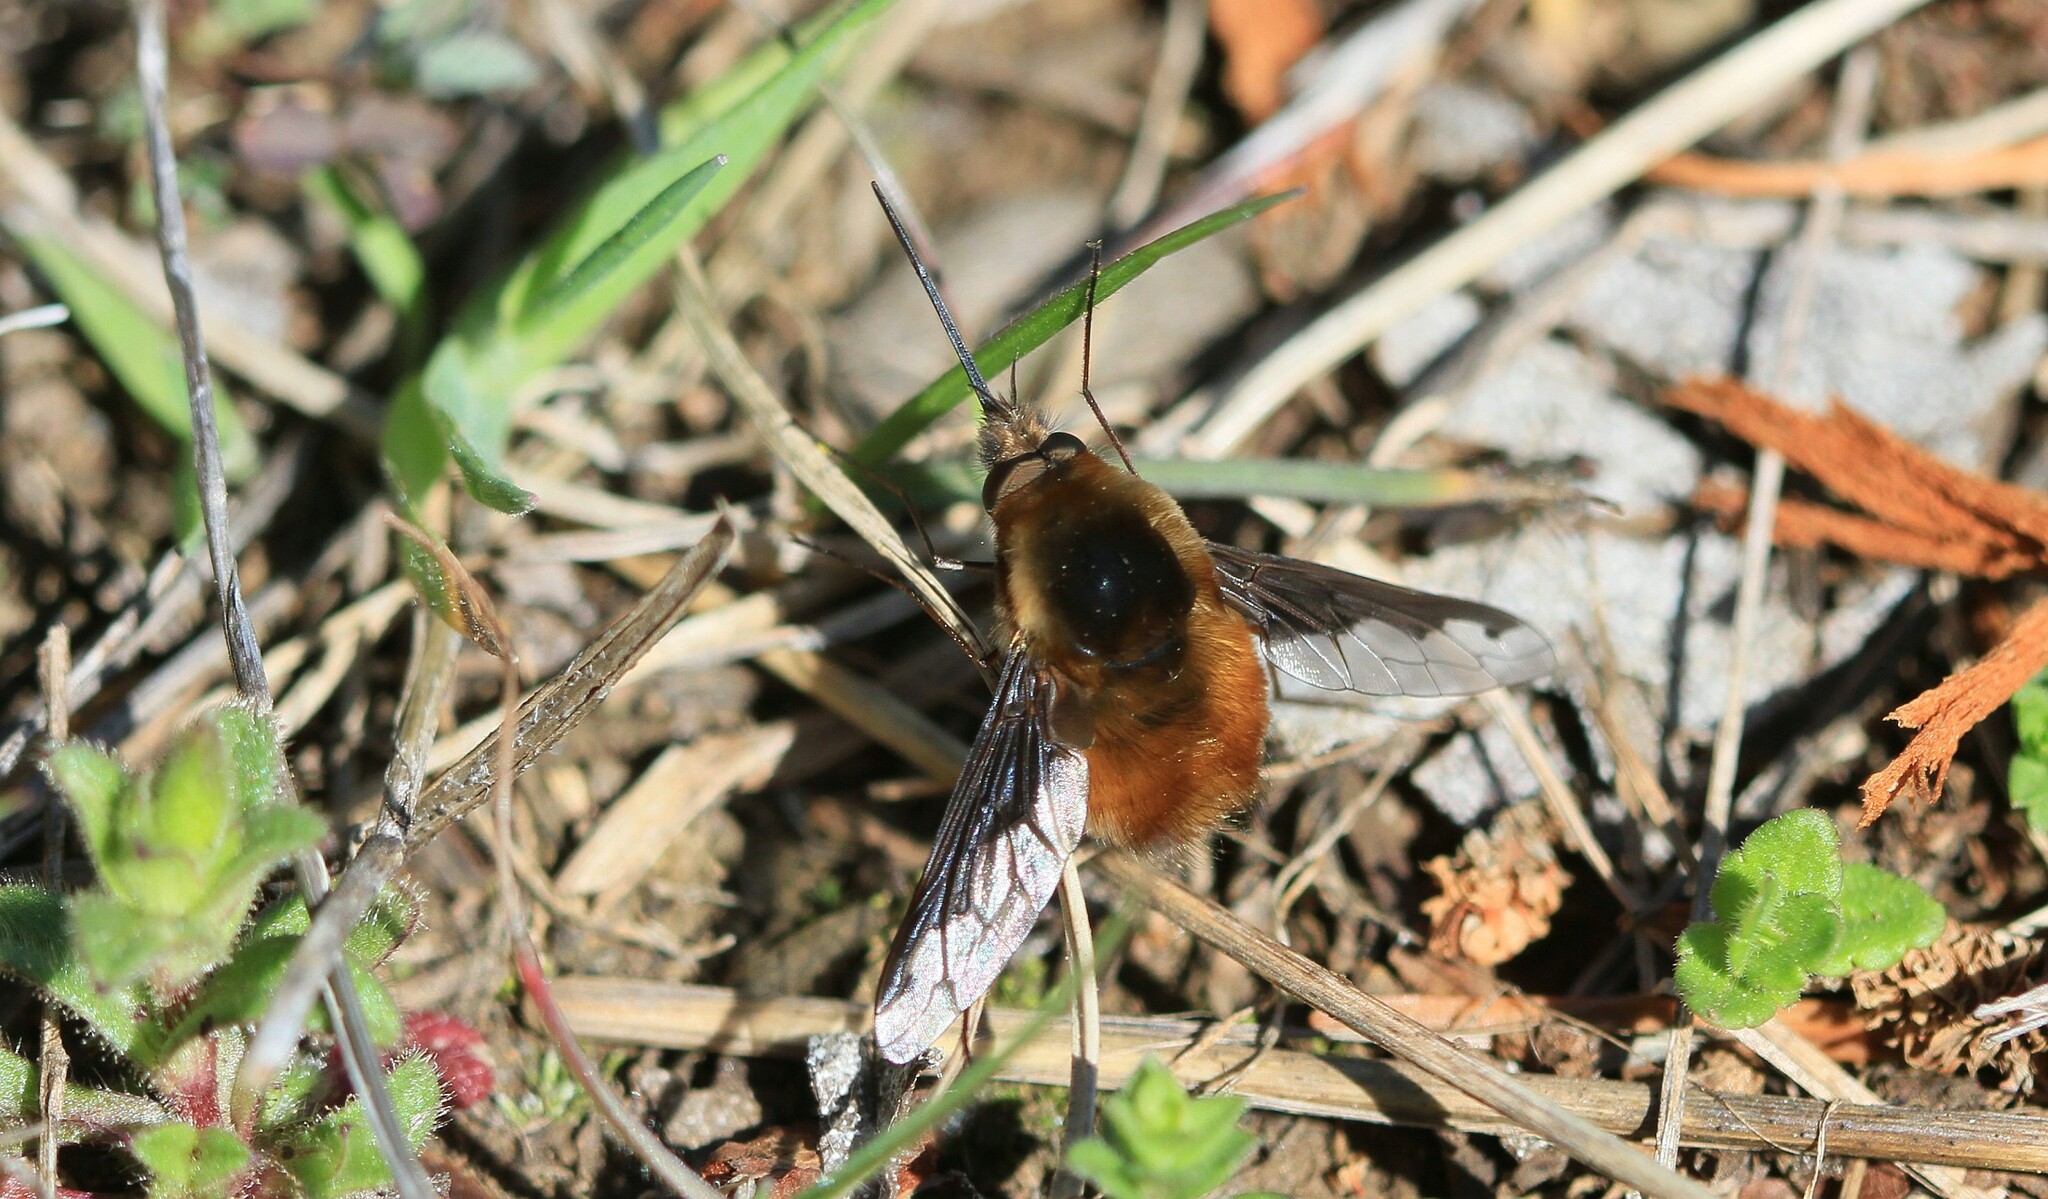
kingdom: Animalia
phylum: Arthropoda
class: Insecta
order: Diptera
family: Bombyliidae
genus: Bombylius
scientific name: Bombylius major
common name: Bee fly
